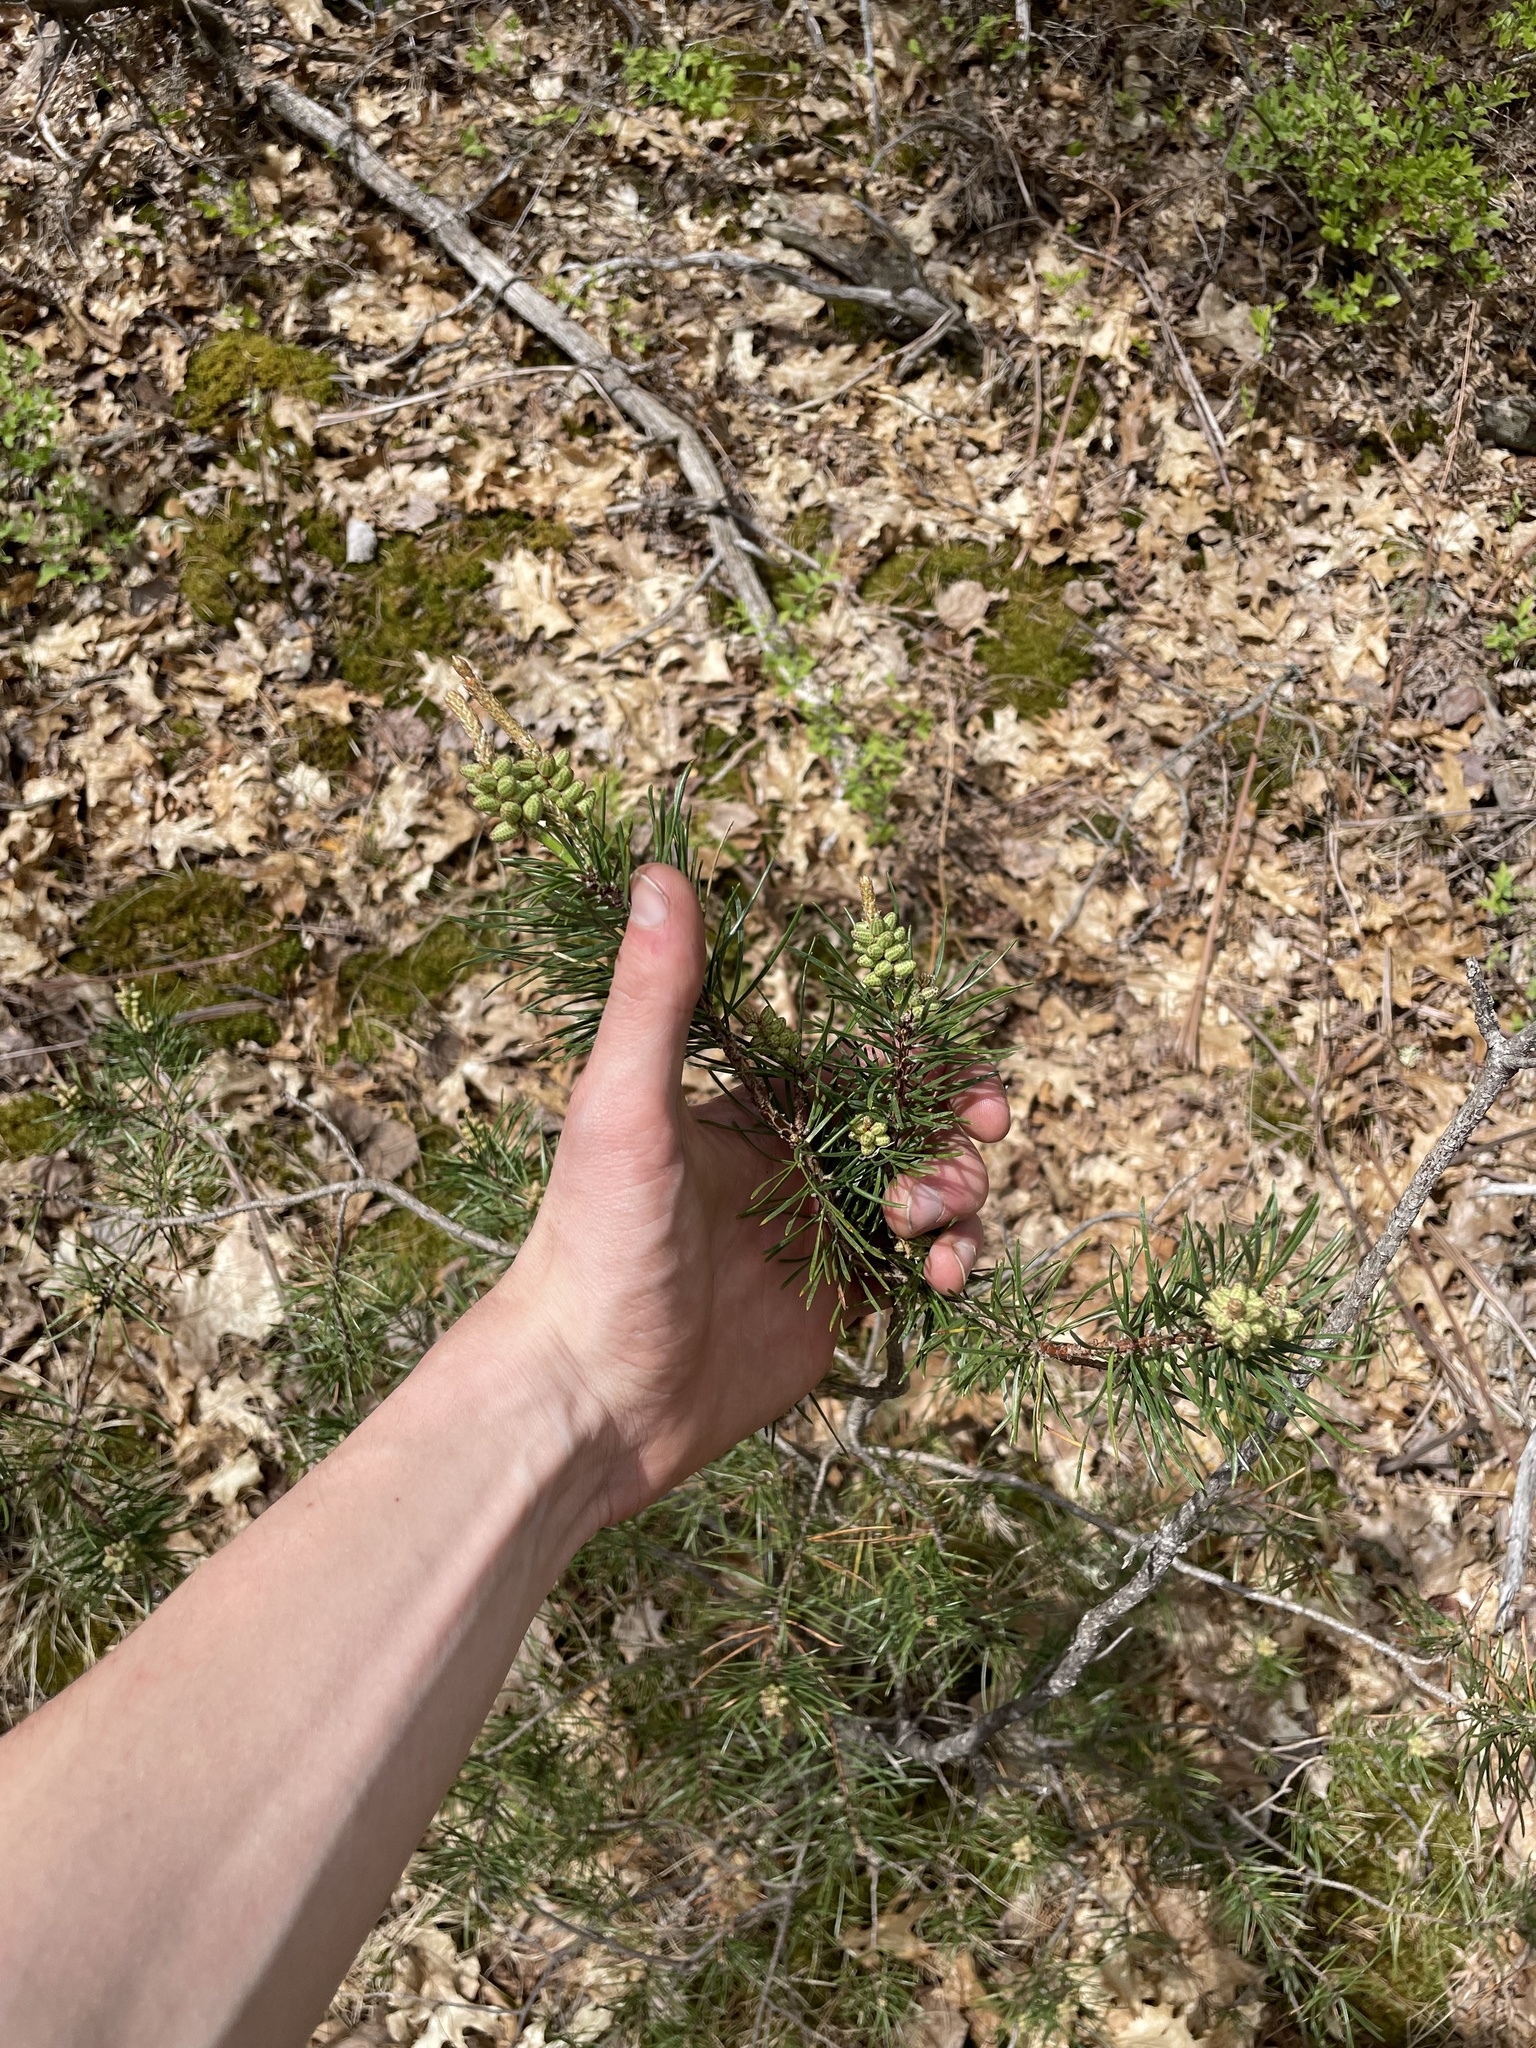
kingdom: Plantae
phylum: Tracheophyta
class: Pinopsida
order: Pinales
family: Pinaceae
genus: Pinus
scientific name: Pinus banksiana
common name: Jack pine
